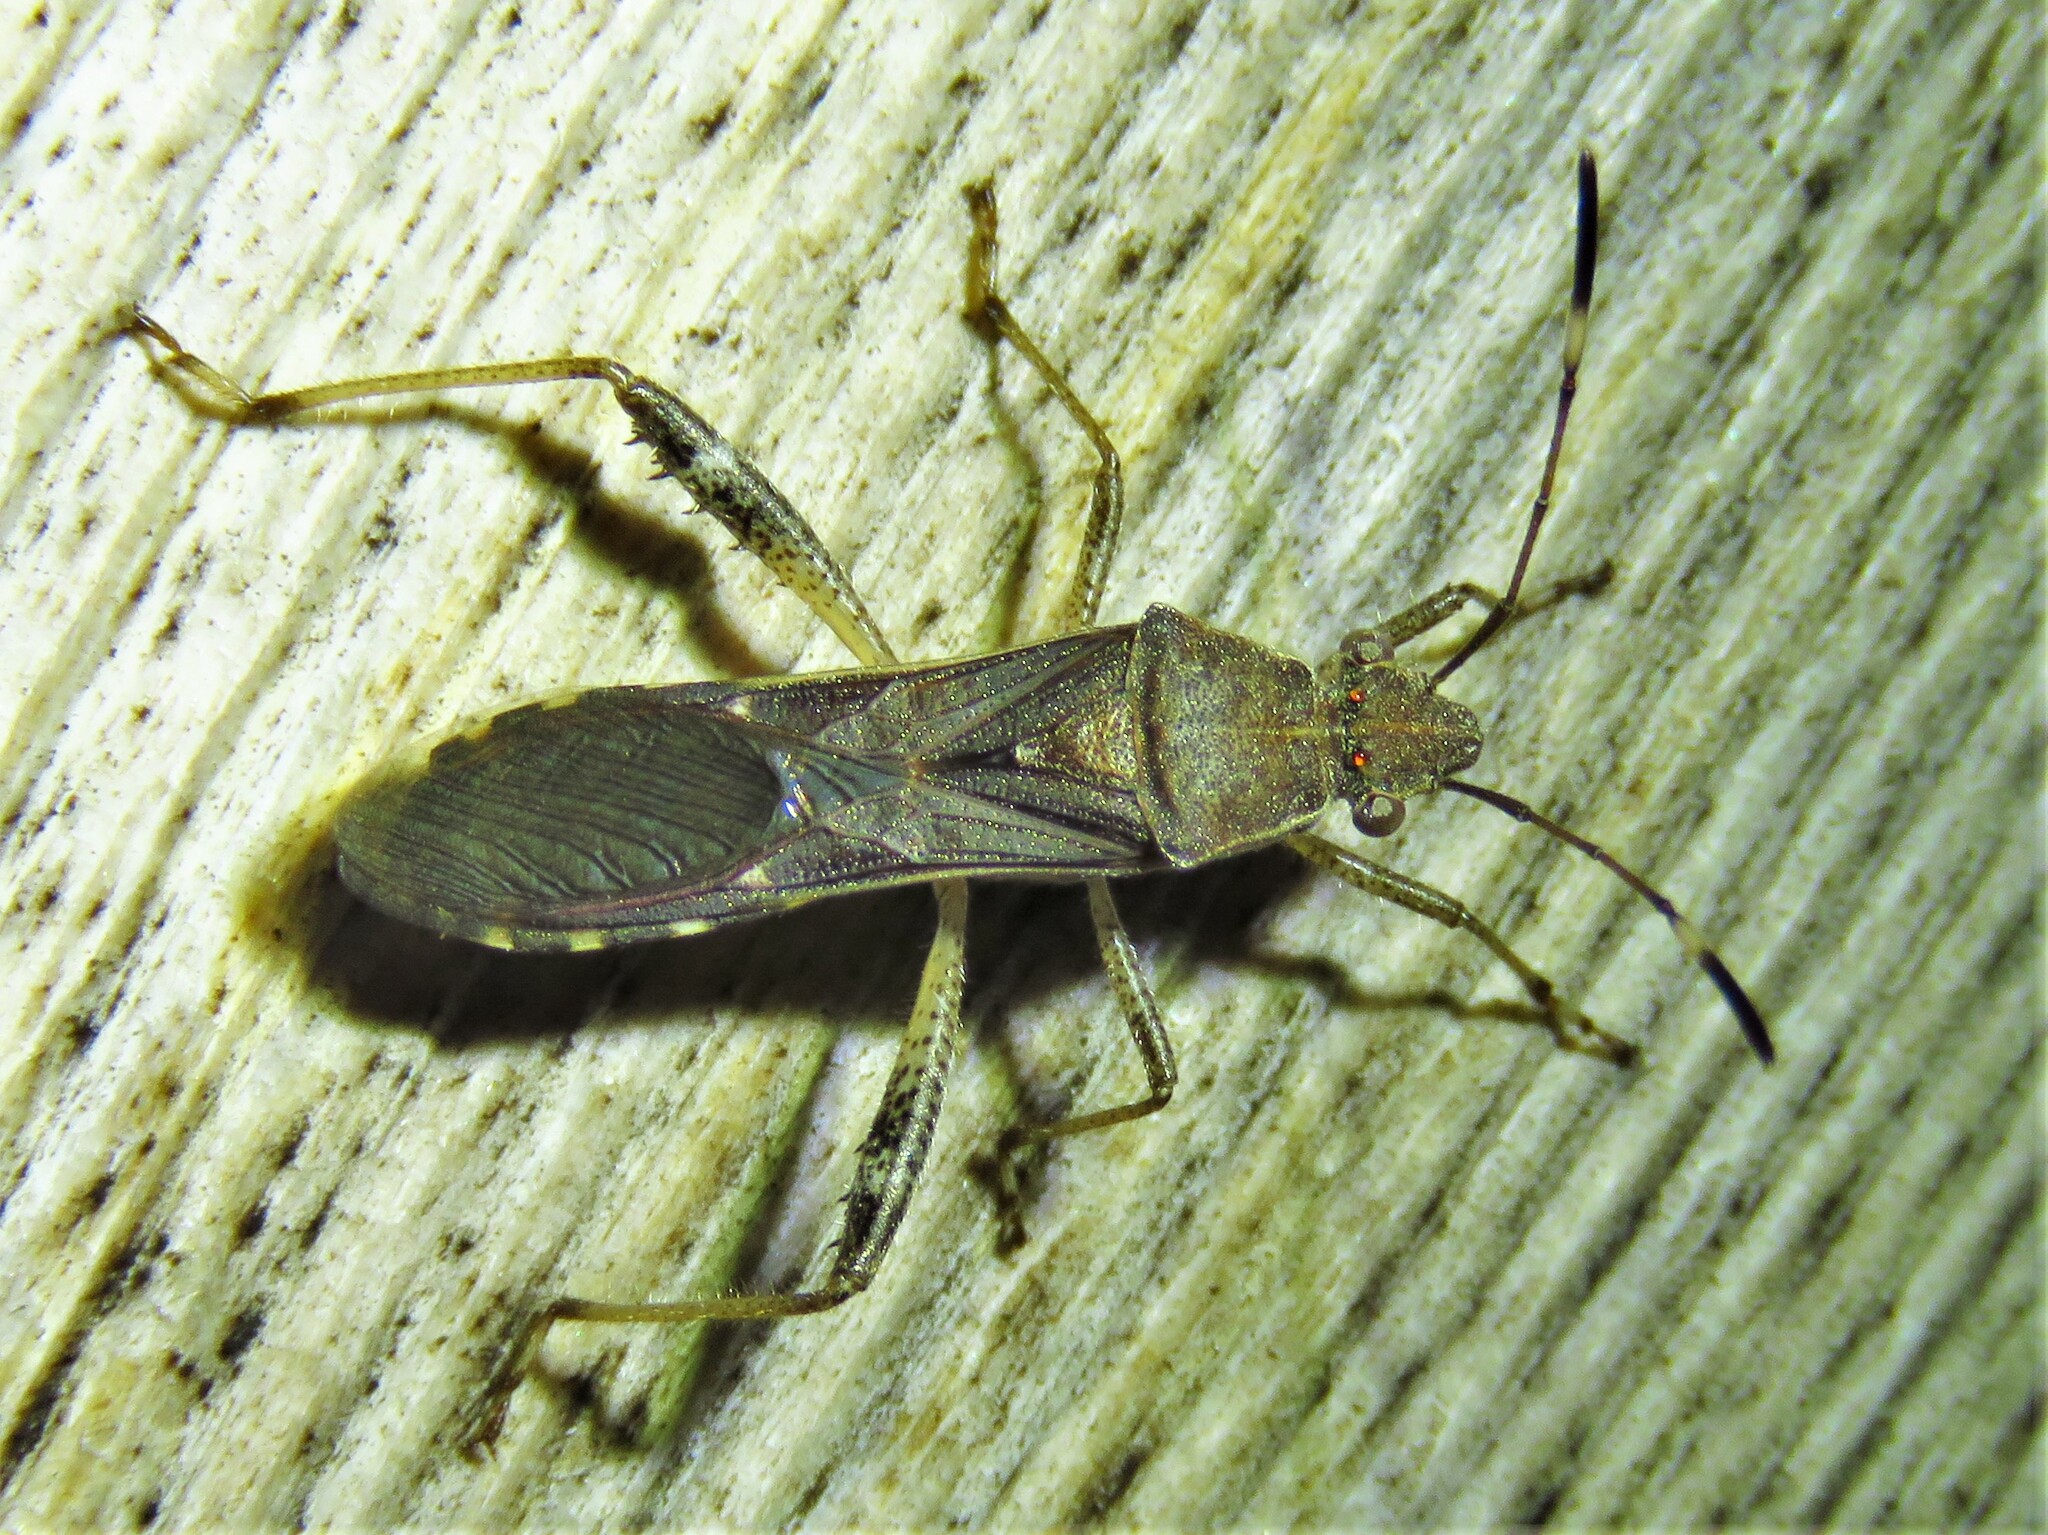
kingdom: Animalia
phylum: Arthropoda
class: Insecta
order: Hemiptera
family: Alydidae
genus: Burtinus
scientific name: Burtinus notatipennis
